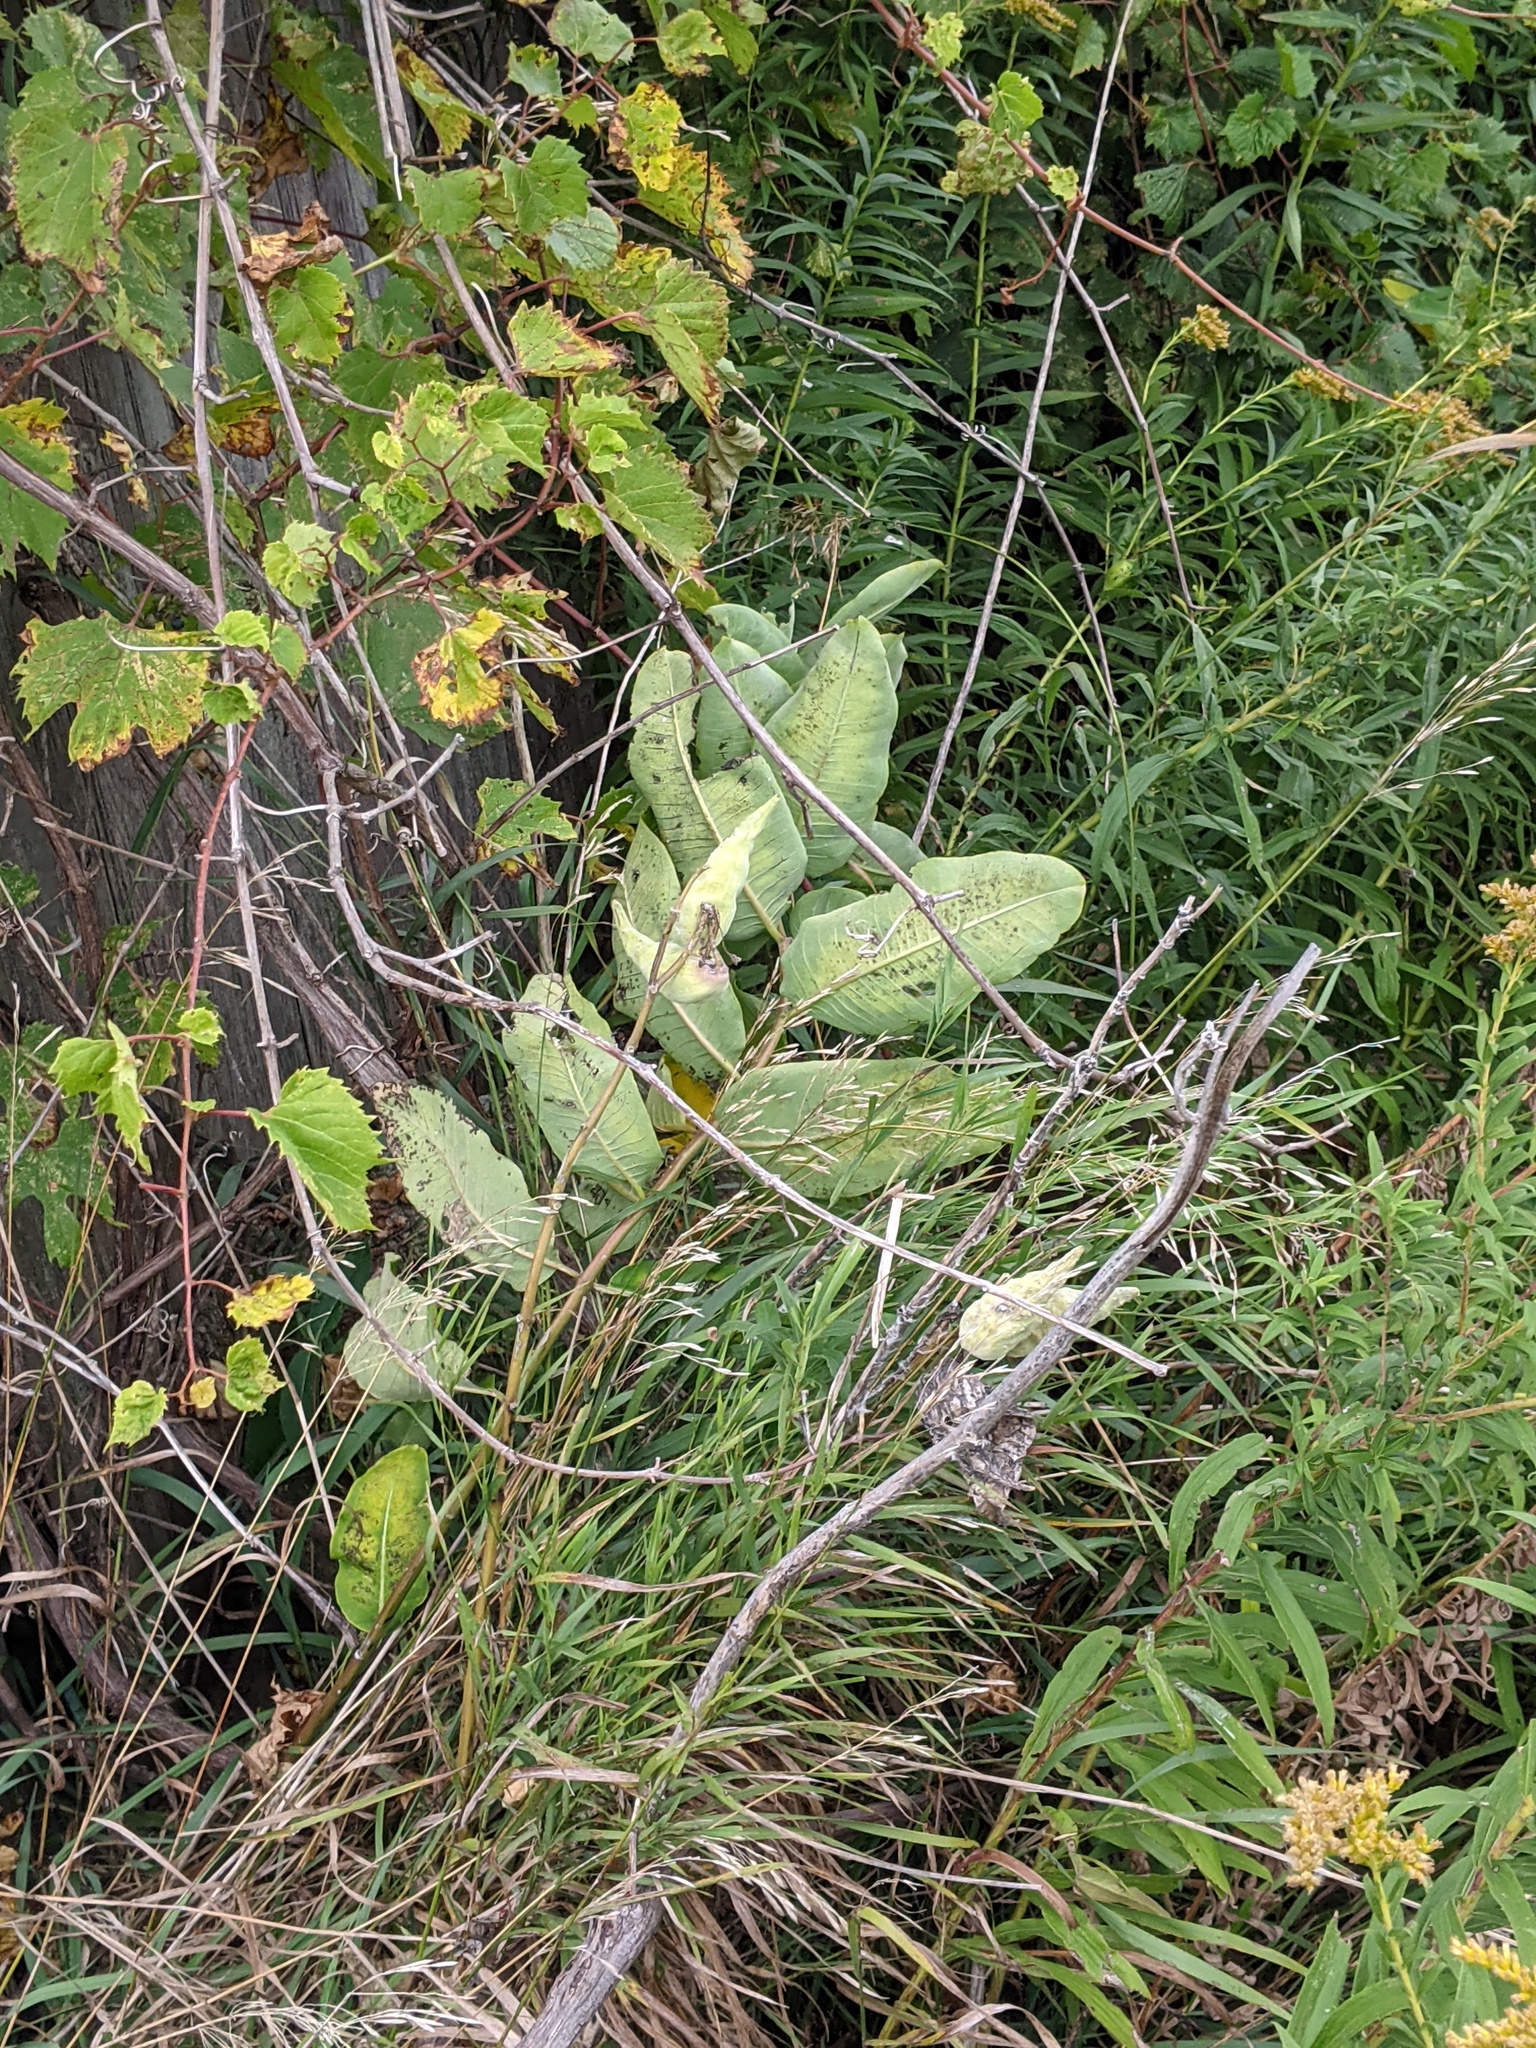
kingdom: Plantae
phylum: Tracheophyta
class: Magnoliopsida
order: Gentianales
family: Apocynaceae
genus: Asclepias
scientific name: Asclepias syriaca
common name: Common milkweed
